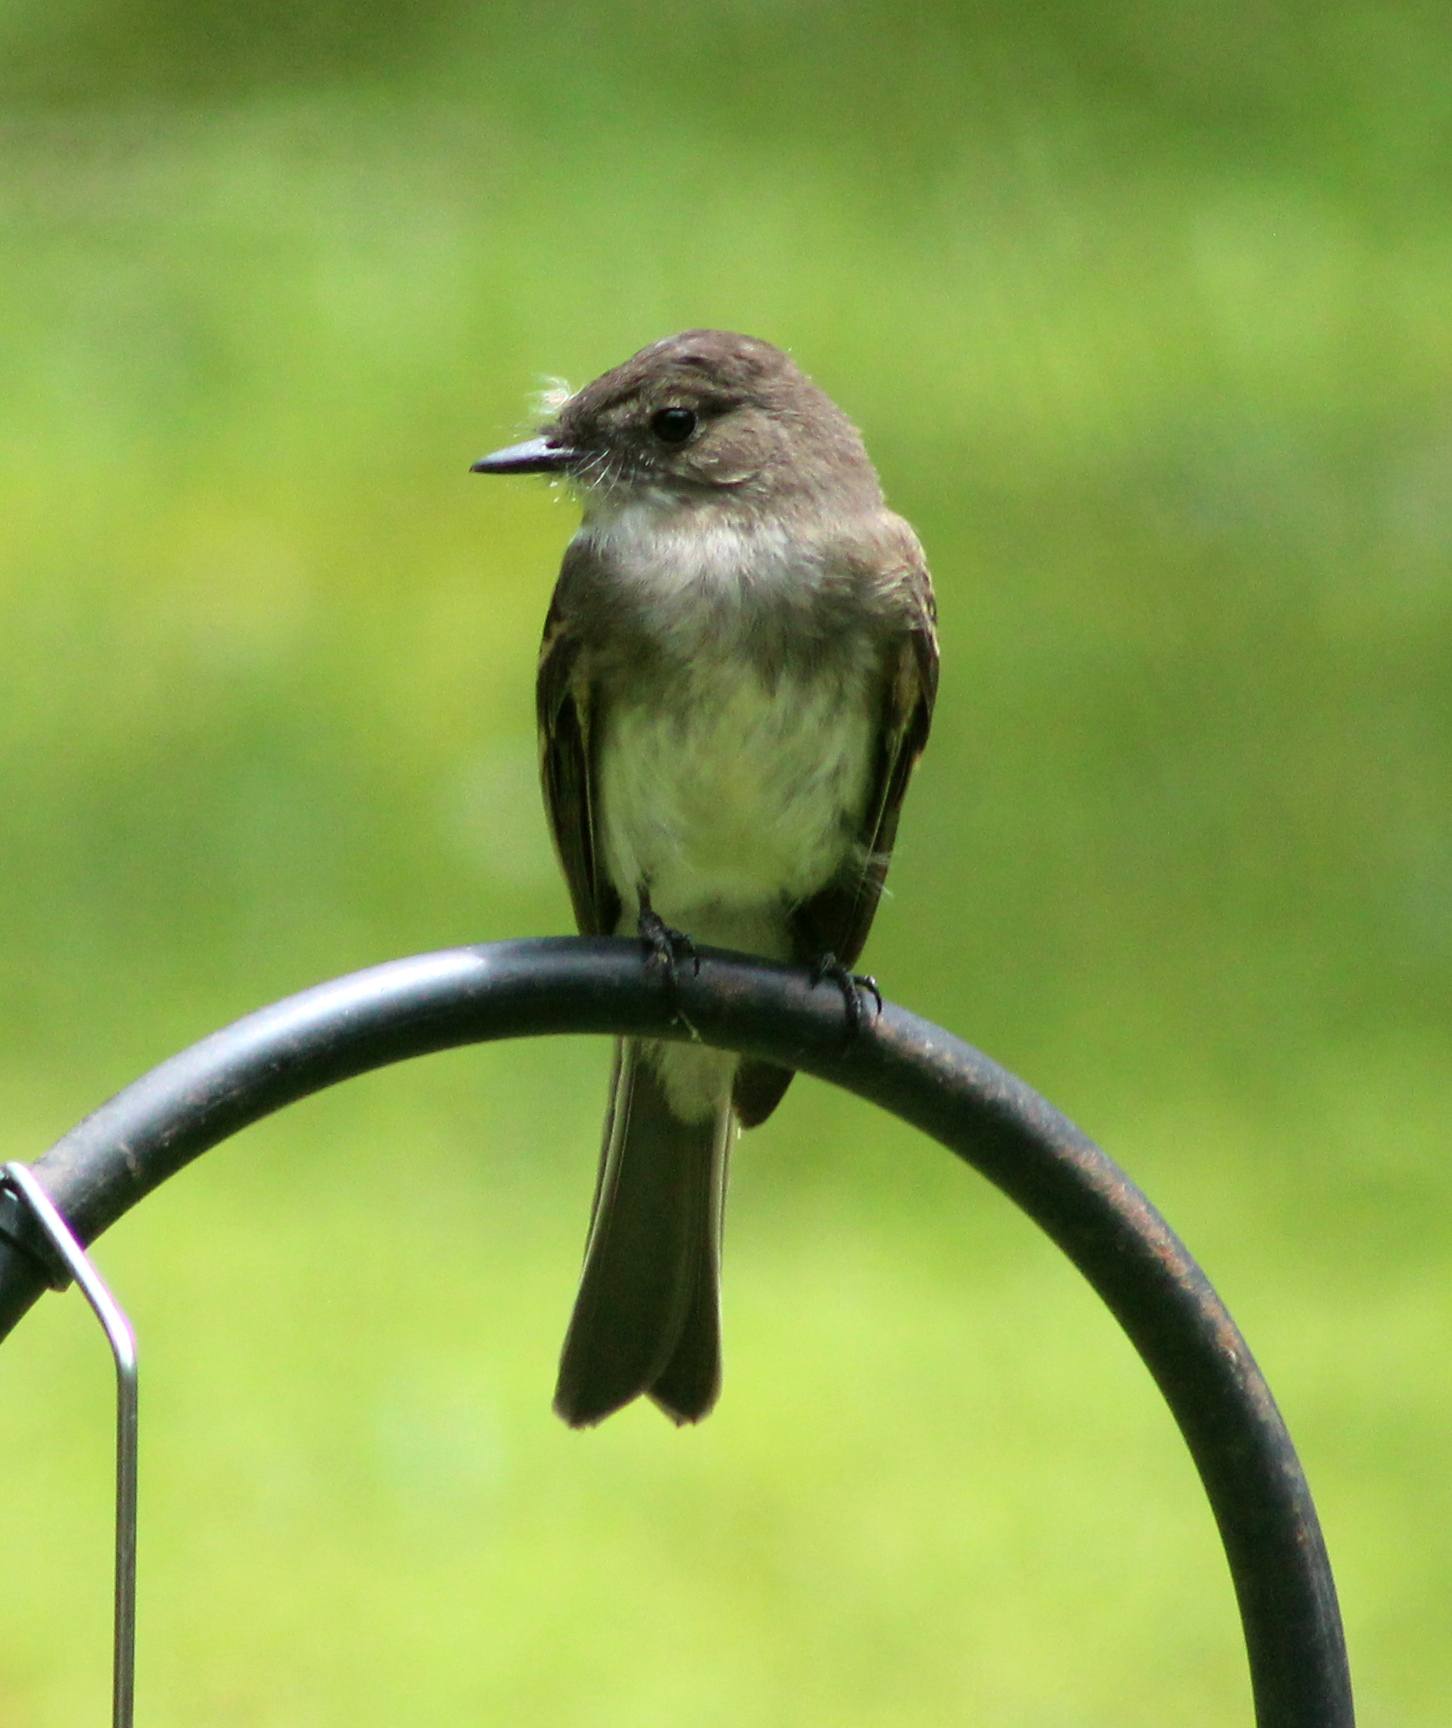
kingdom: Animalia
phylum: Chordata
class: Aves
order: Passeriformes
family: Tyrannidae
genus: Sayornis
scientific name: Sayornis phoebe
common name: Eastern phoebe
